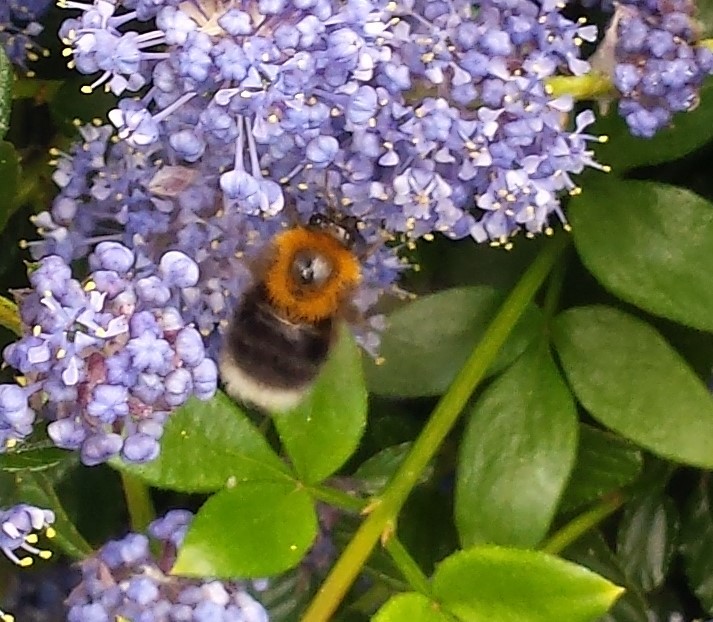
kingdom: Animalia
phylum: Arthropoda
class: Insecta
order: Hymenoptera
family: Apidae
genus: Bombus
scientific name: Bombus hypnorum
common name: New garden bumblebee
